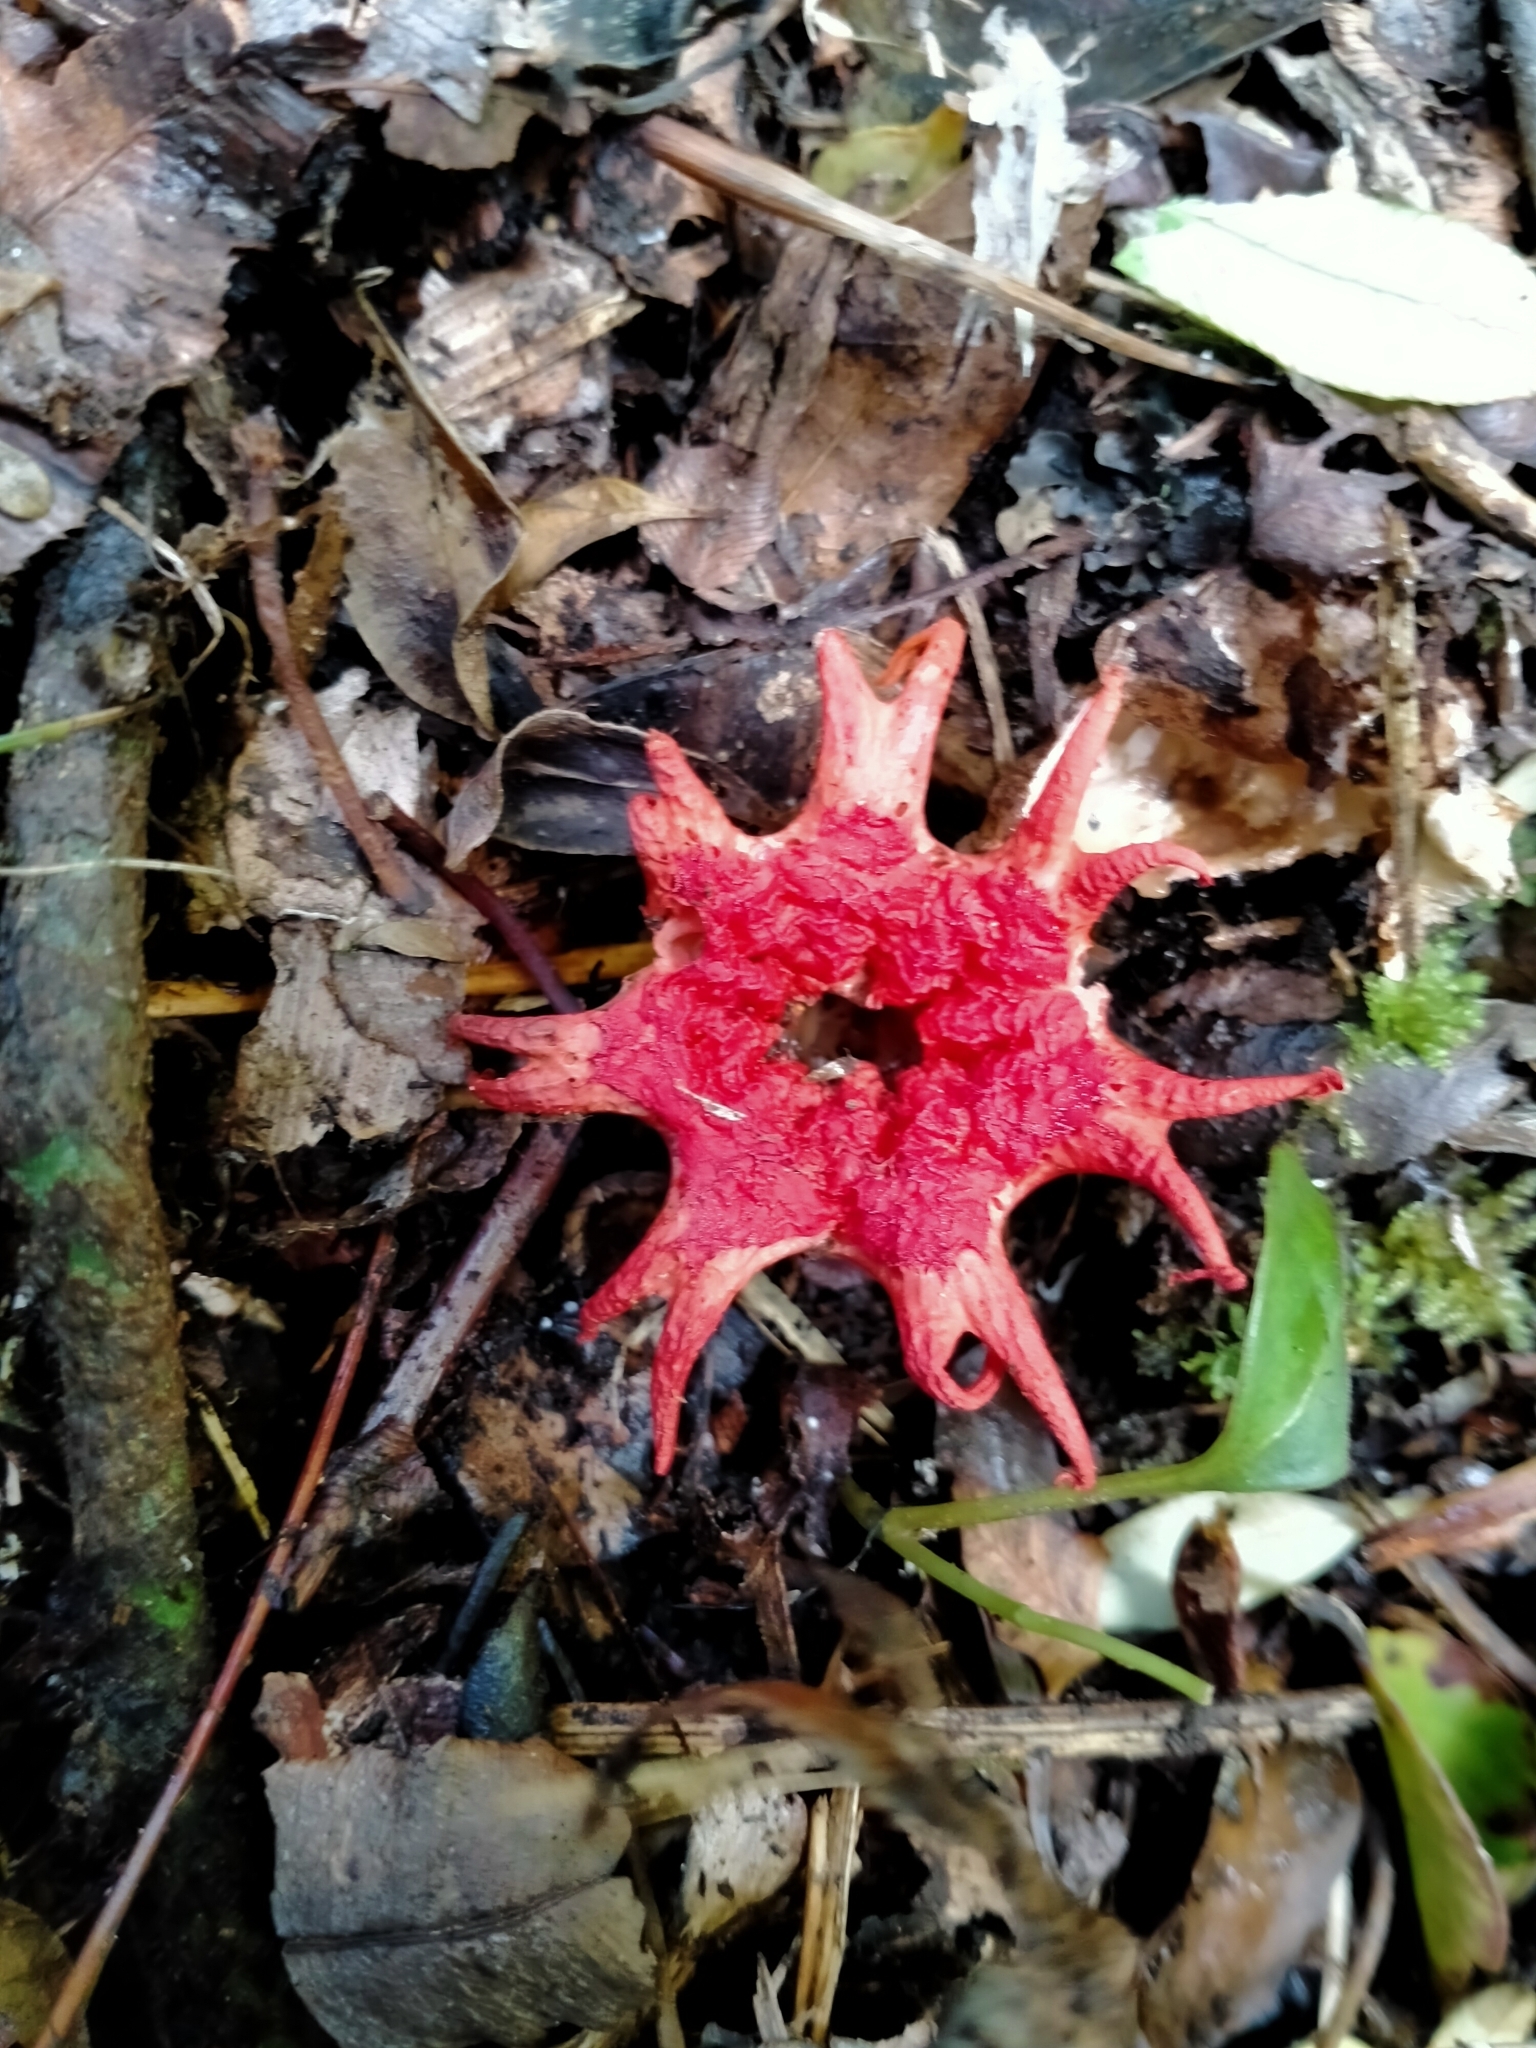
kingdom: Fungi
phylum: Basidiomycota
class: Agaricomycetes
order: Phallales
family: Phallaceae
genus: Aseroe
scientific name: Aseroe rubra
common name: Starfish fungus
